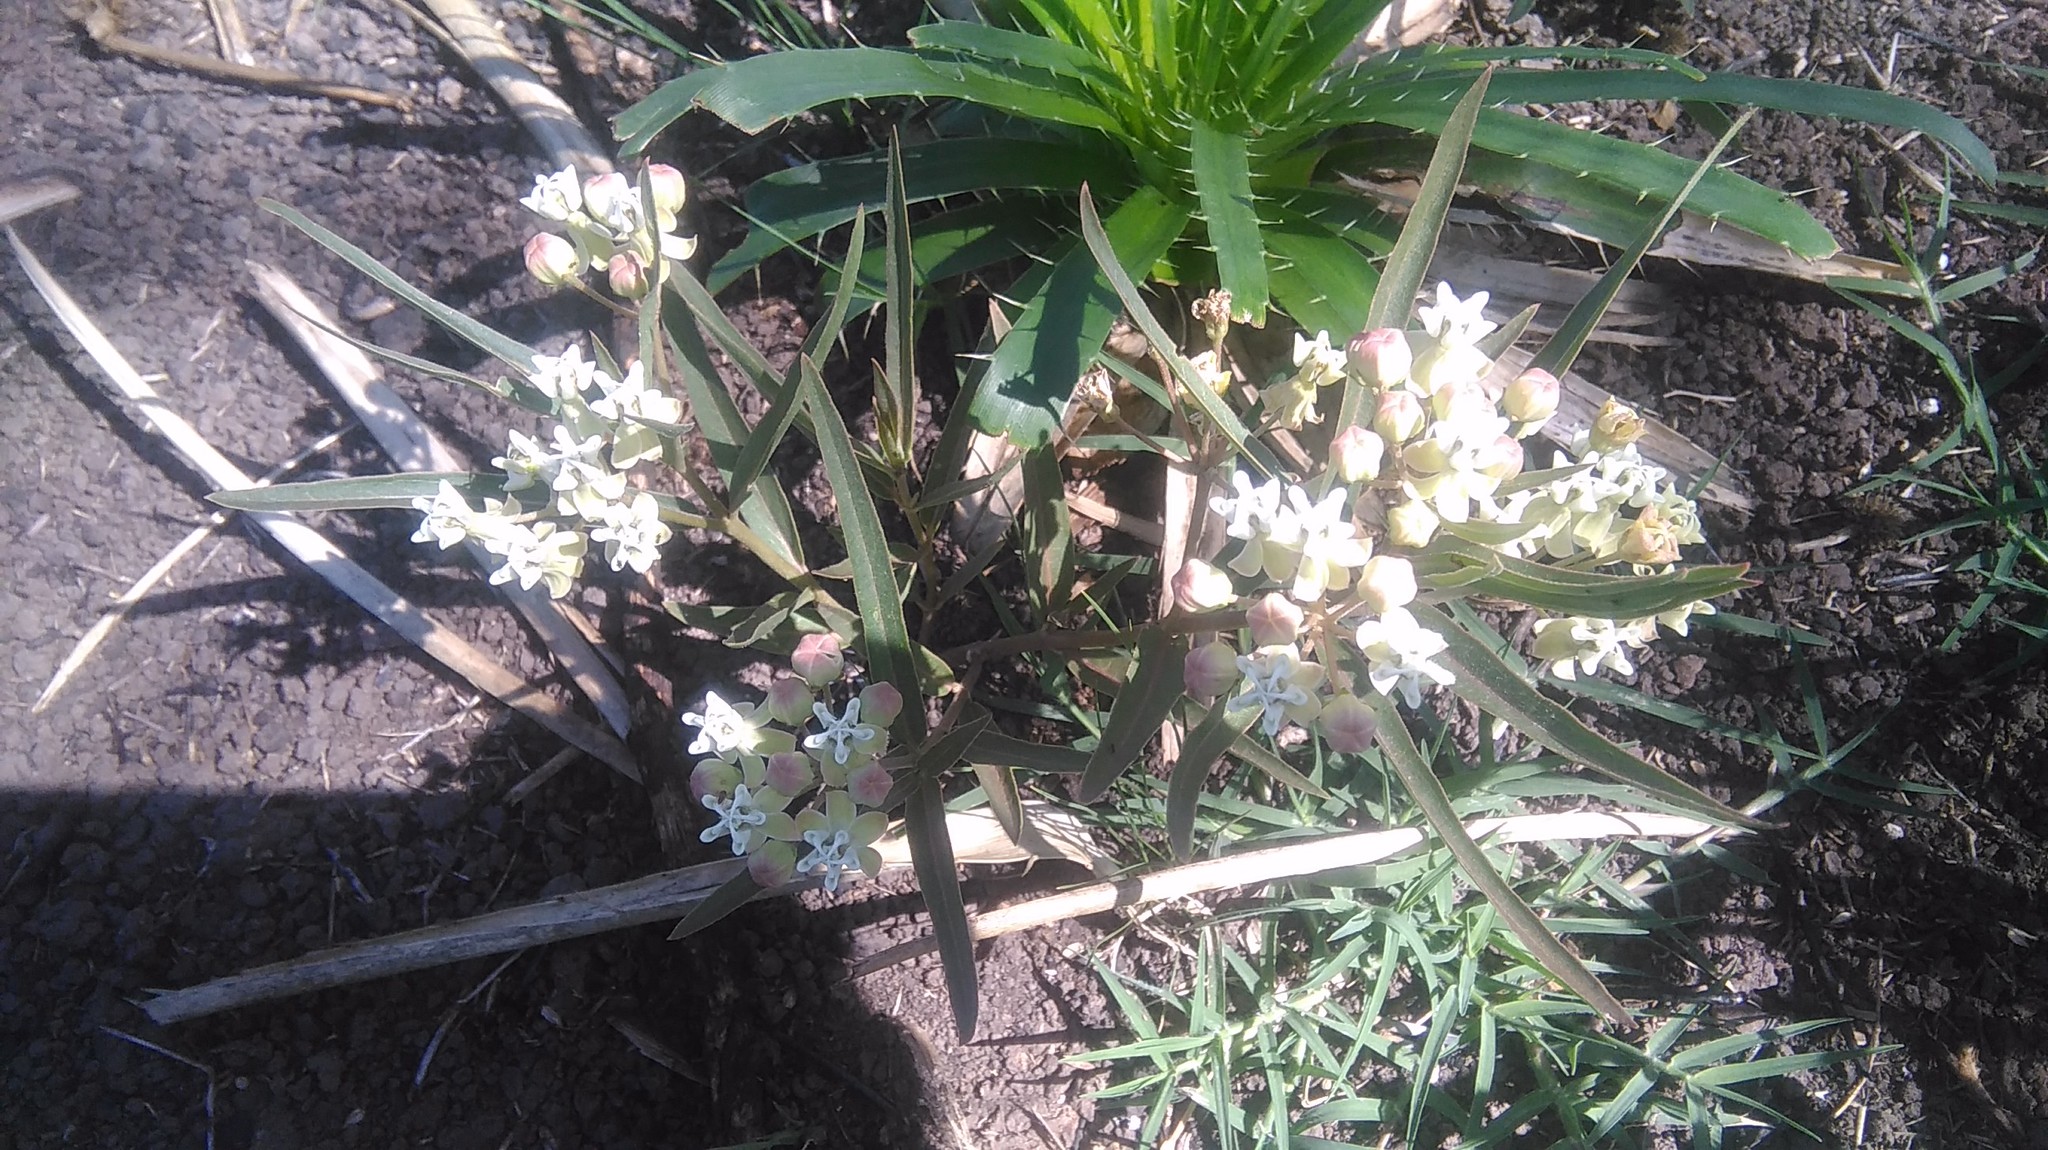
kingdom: Plantae
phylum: Tracheophyta
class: Magnoliopsida
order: Gentianales
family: Apocynaceae
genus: Asclepias
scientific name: Asclepias mellodora
